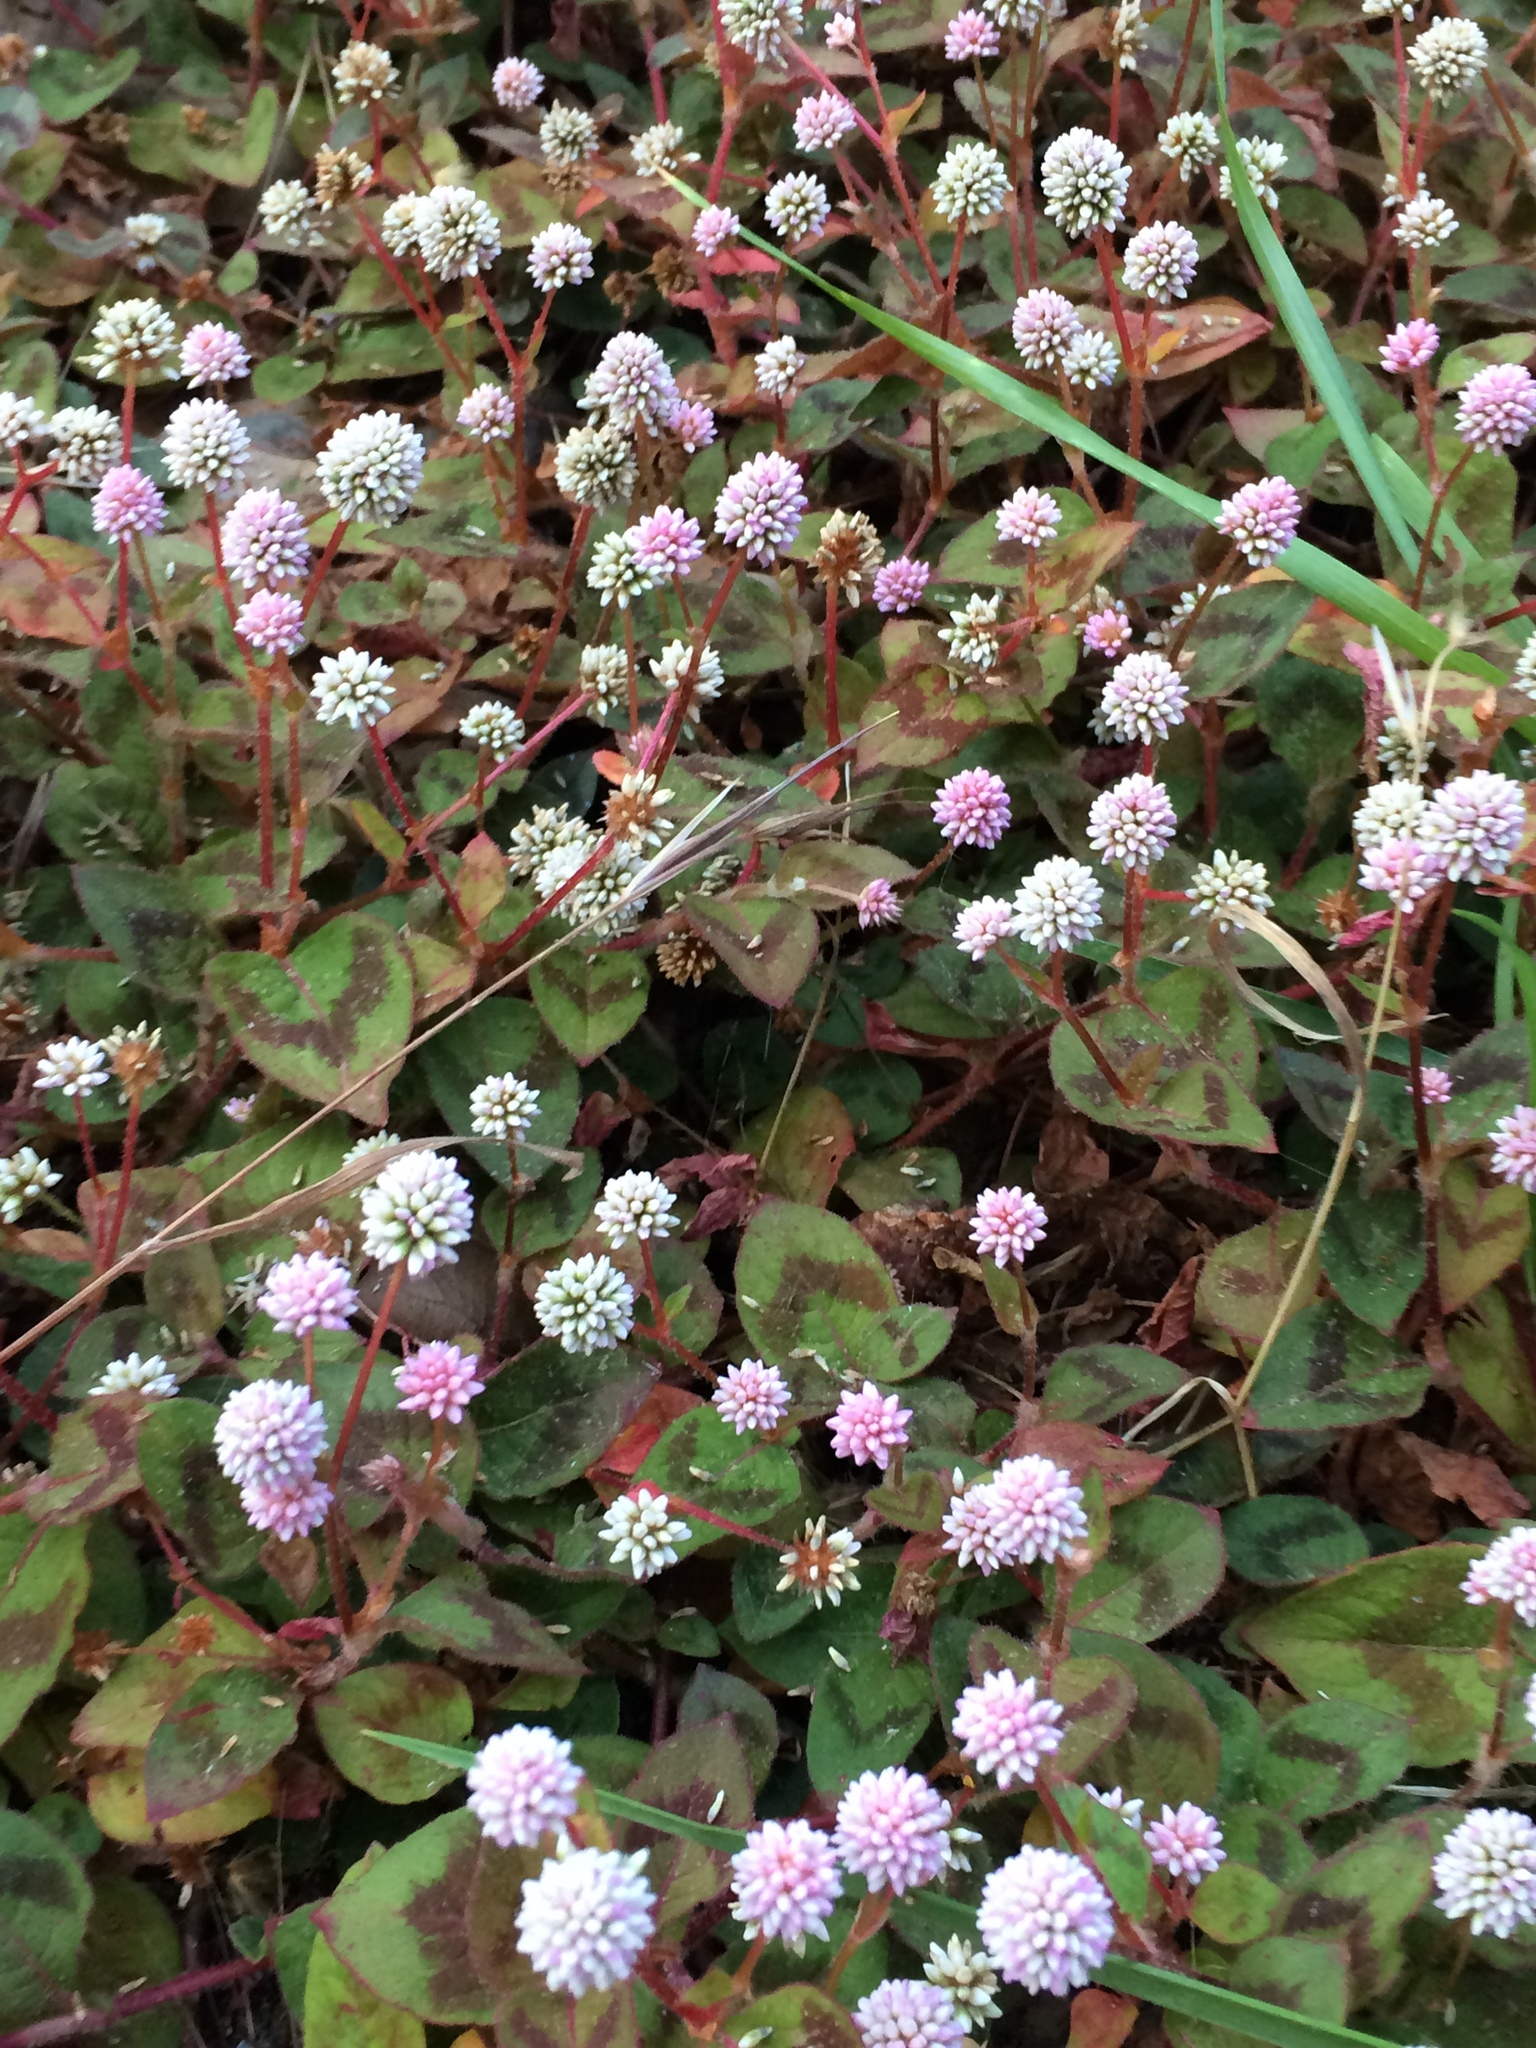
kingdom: Plantae
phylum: Tracheophyta
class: Magnoliopsida
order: Caryophyllales
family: Polygonaceae
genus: Persicaria
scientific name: Persicaria capitata
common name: Pinkhead smartweed
